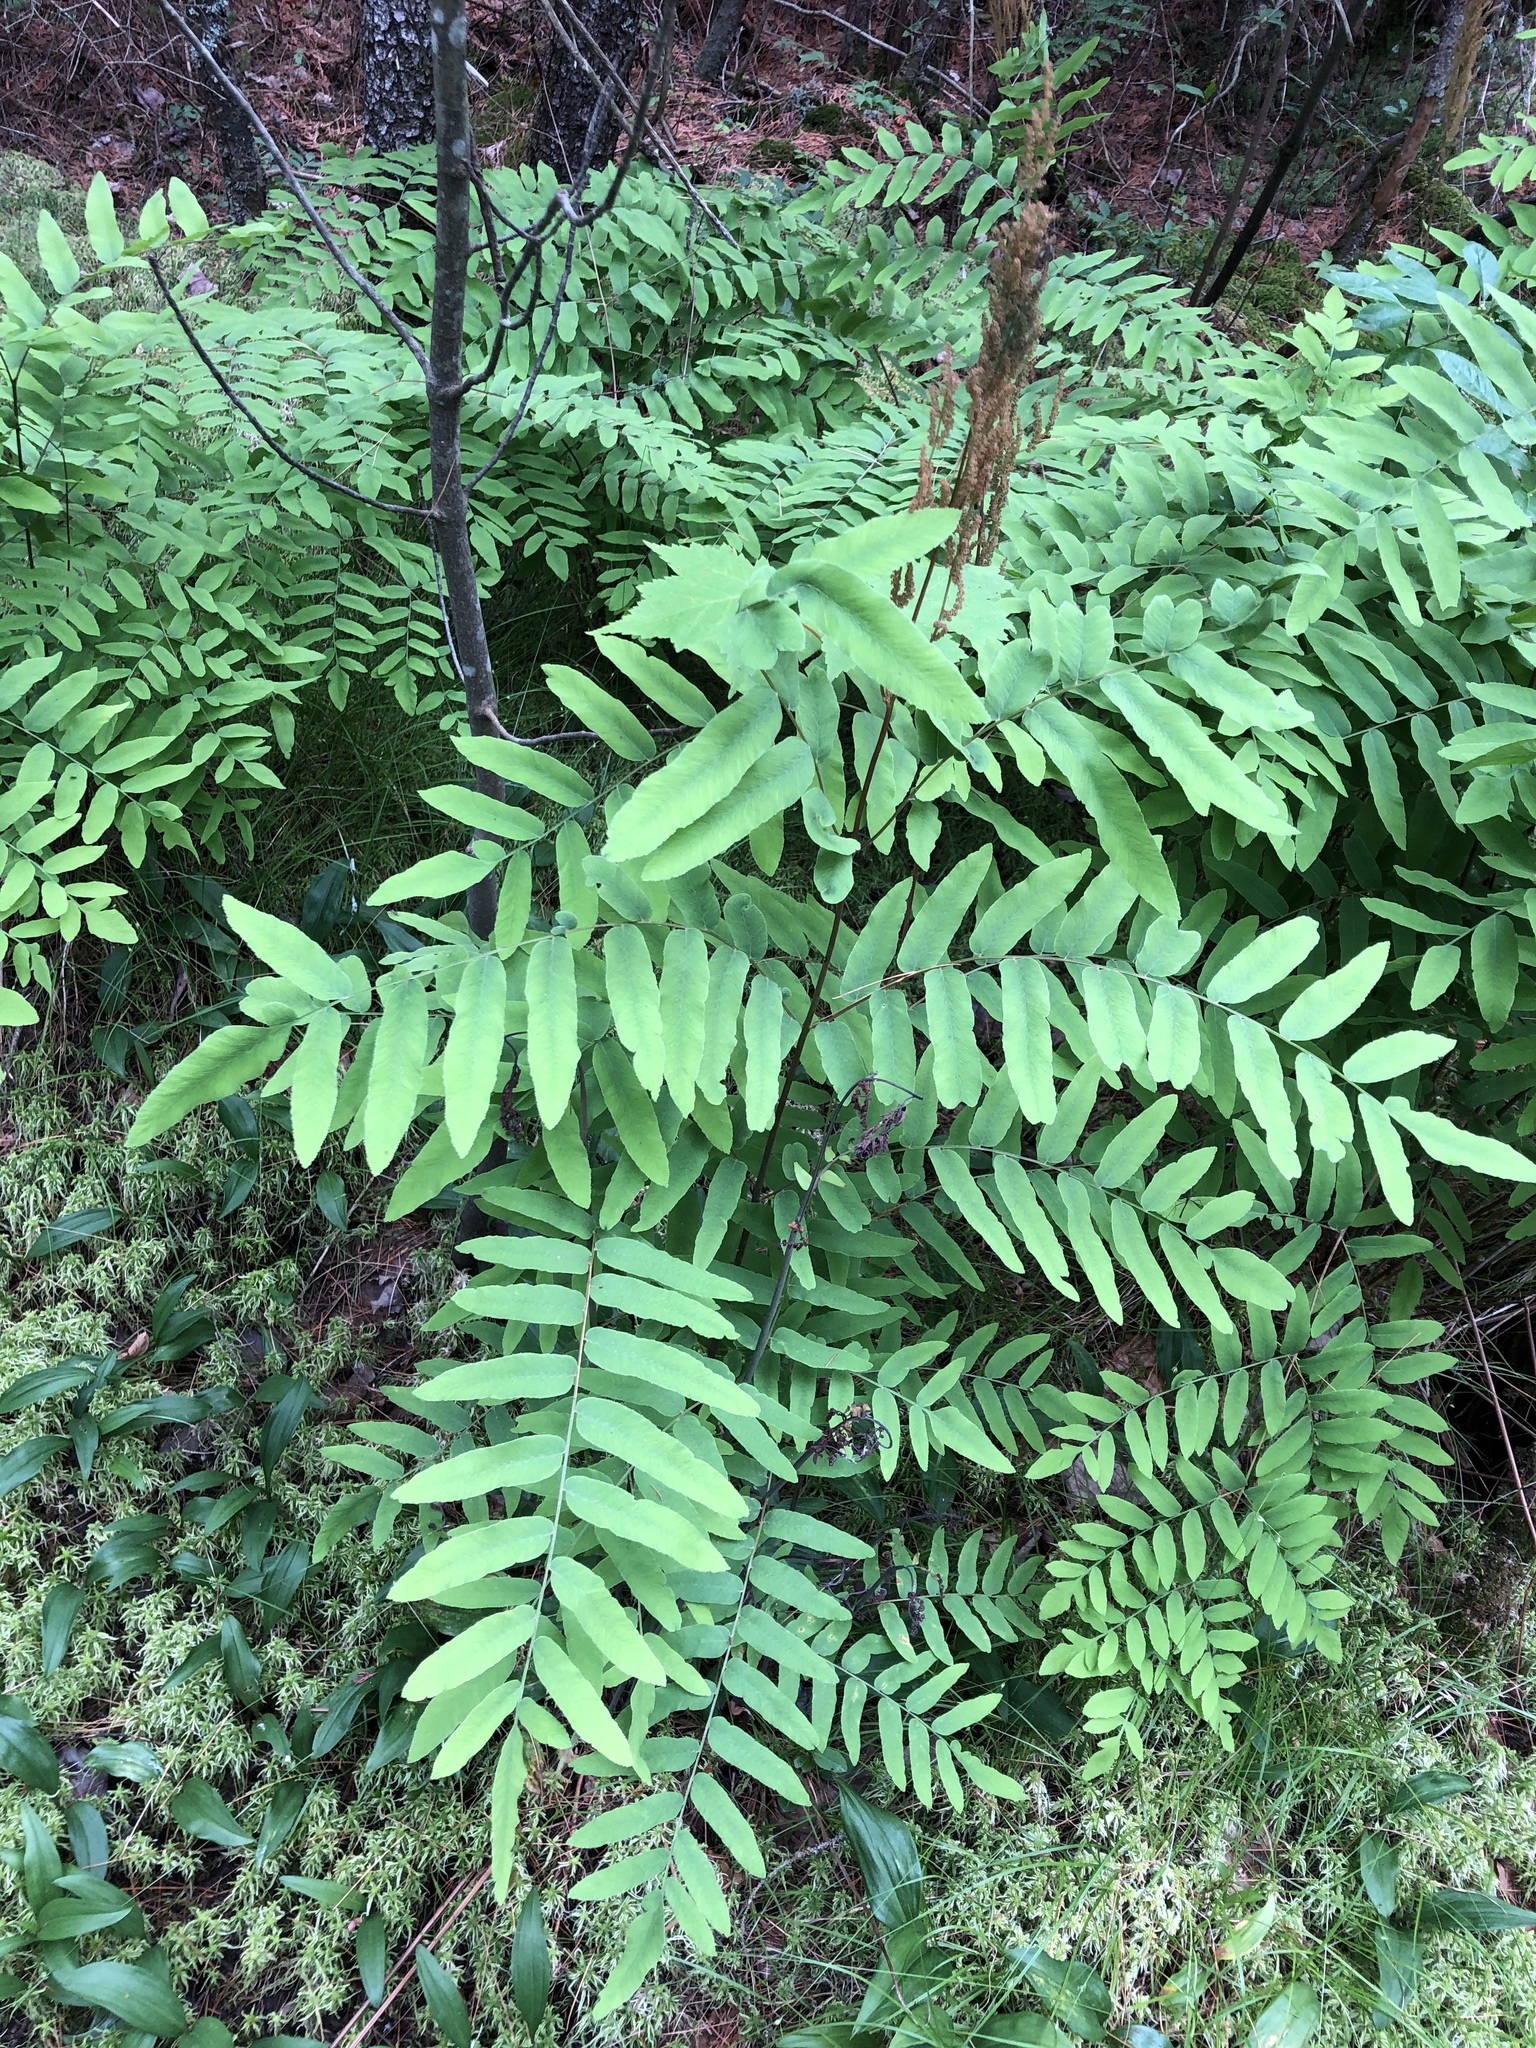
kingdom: Plantae
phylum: Tracheophyta
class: Polypodiopsida
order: Osmundales
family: Osmundaceae
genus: Osmunda
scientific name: Osmunda spectabilis
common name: American royal fern
